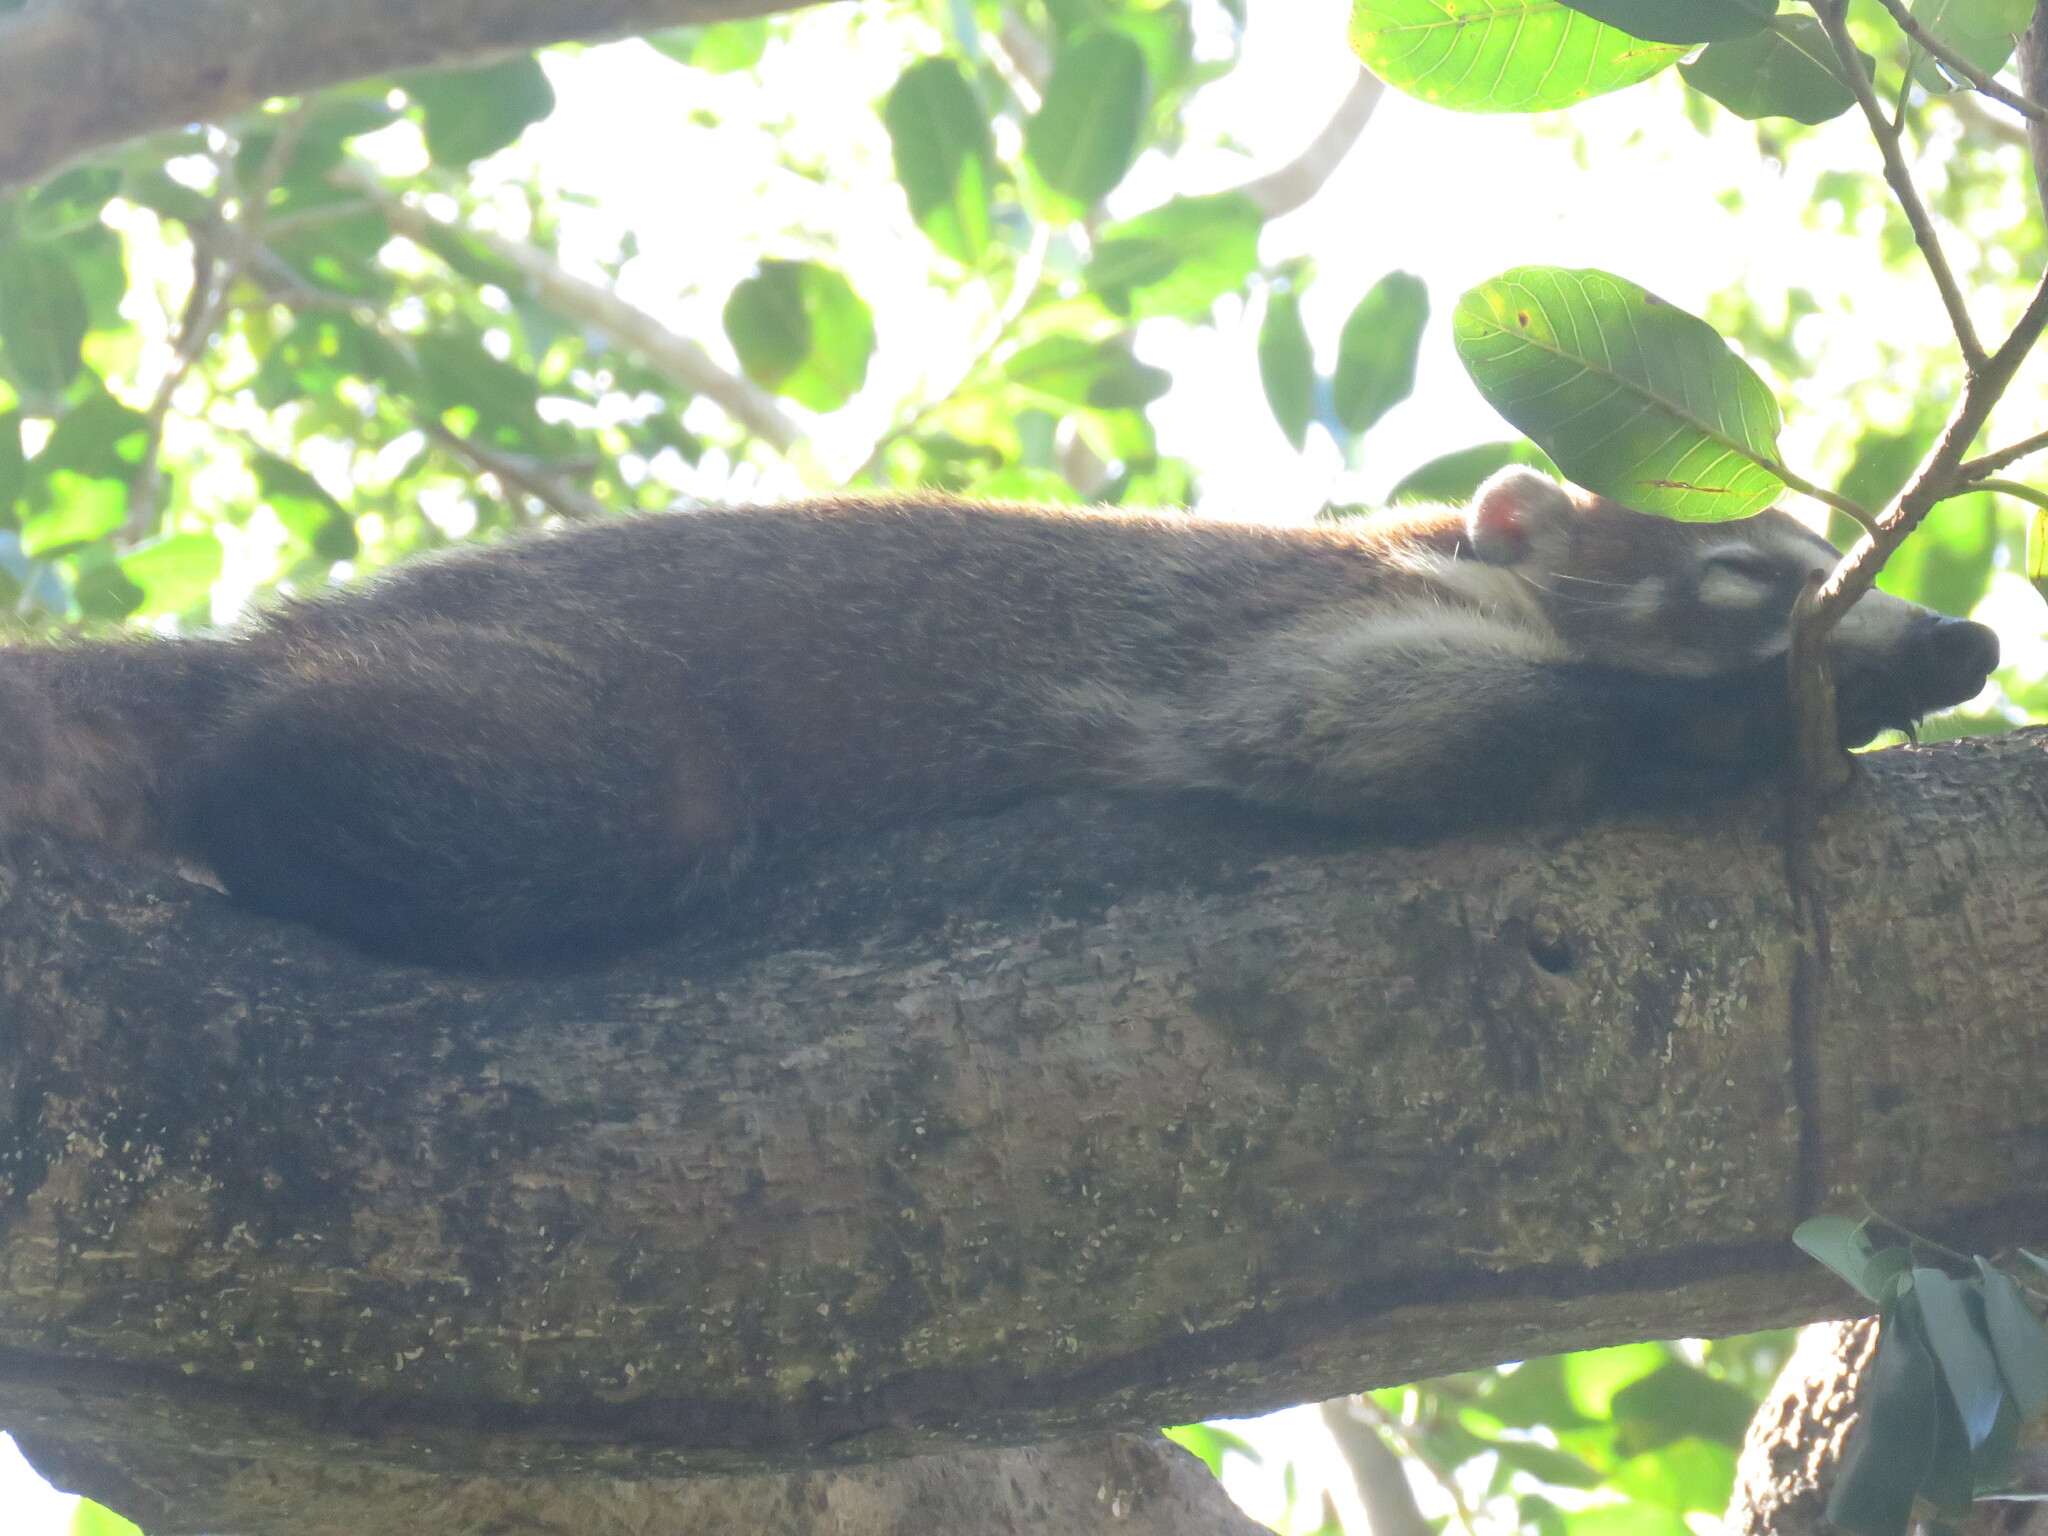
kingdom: Animalia
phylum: Chordata
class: Mammalia
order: Carnivora
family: Procyonidae
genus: Nasua
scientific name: Nasua narica
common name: White-nosed coati
